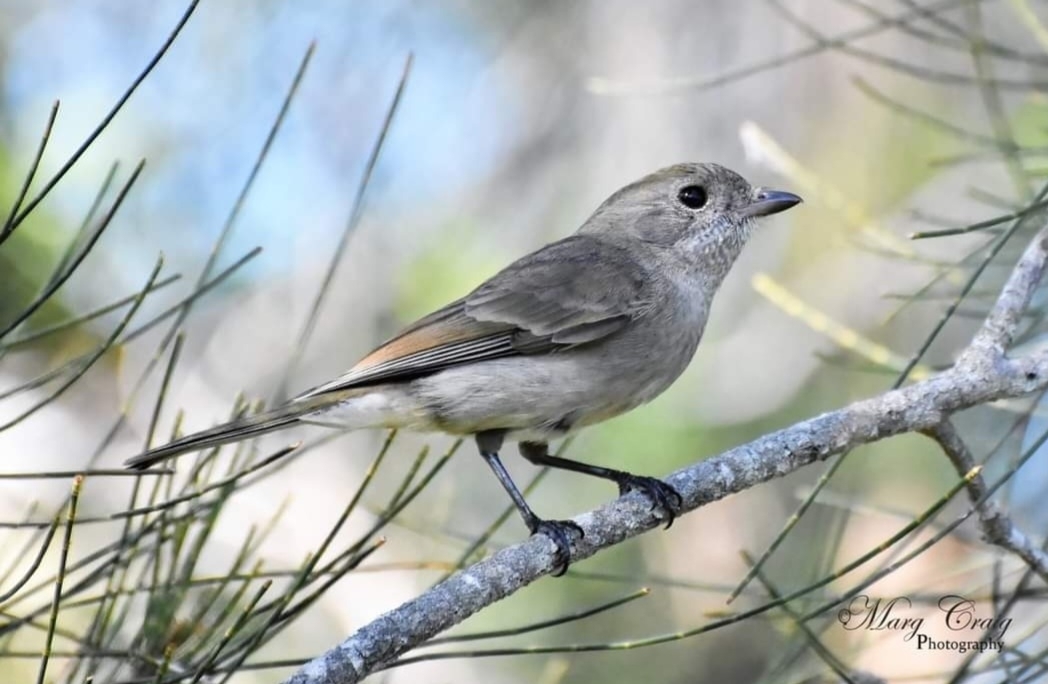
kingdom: Animalia
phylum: Chordata
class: Aves
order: Passeriformes
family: Pachycephalidae
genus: Pachycephala
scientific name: Pachycephala pectoralis
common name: Australian golden whistler
